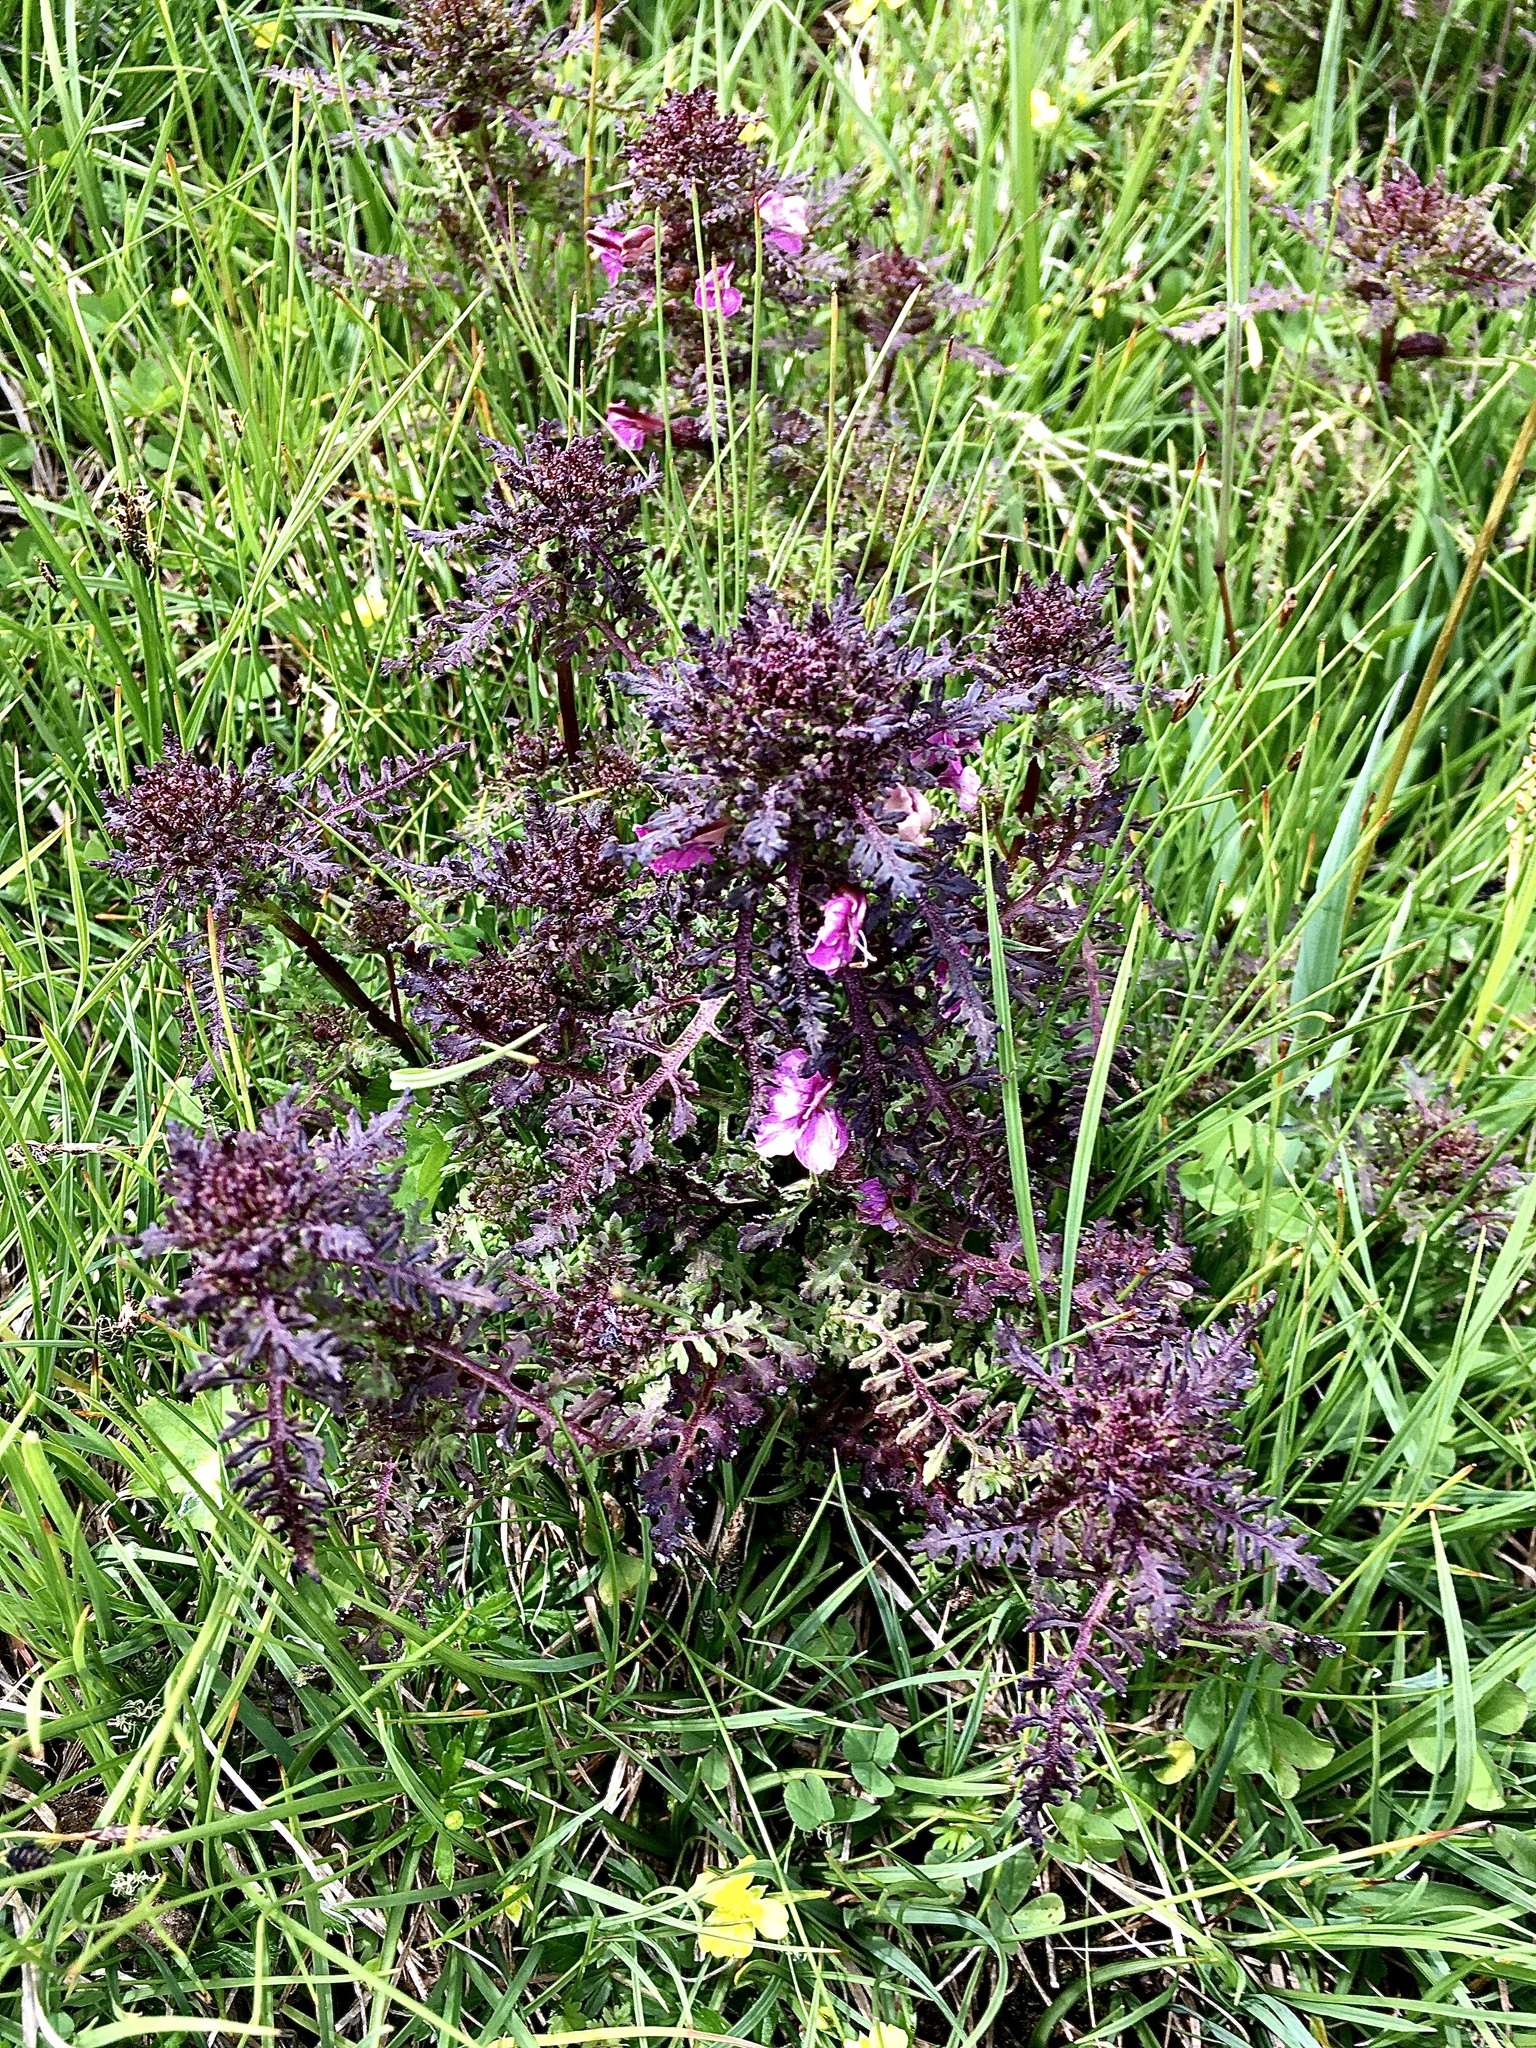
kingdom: Plantae
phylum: Tracheophyta
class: Magnoliopsida
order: Lamiales
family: Orobanchaceae
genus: Pedicularis
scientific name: Pedicularis palustris
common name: Marsh lousewort
